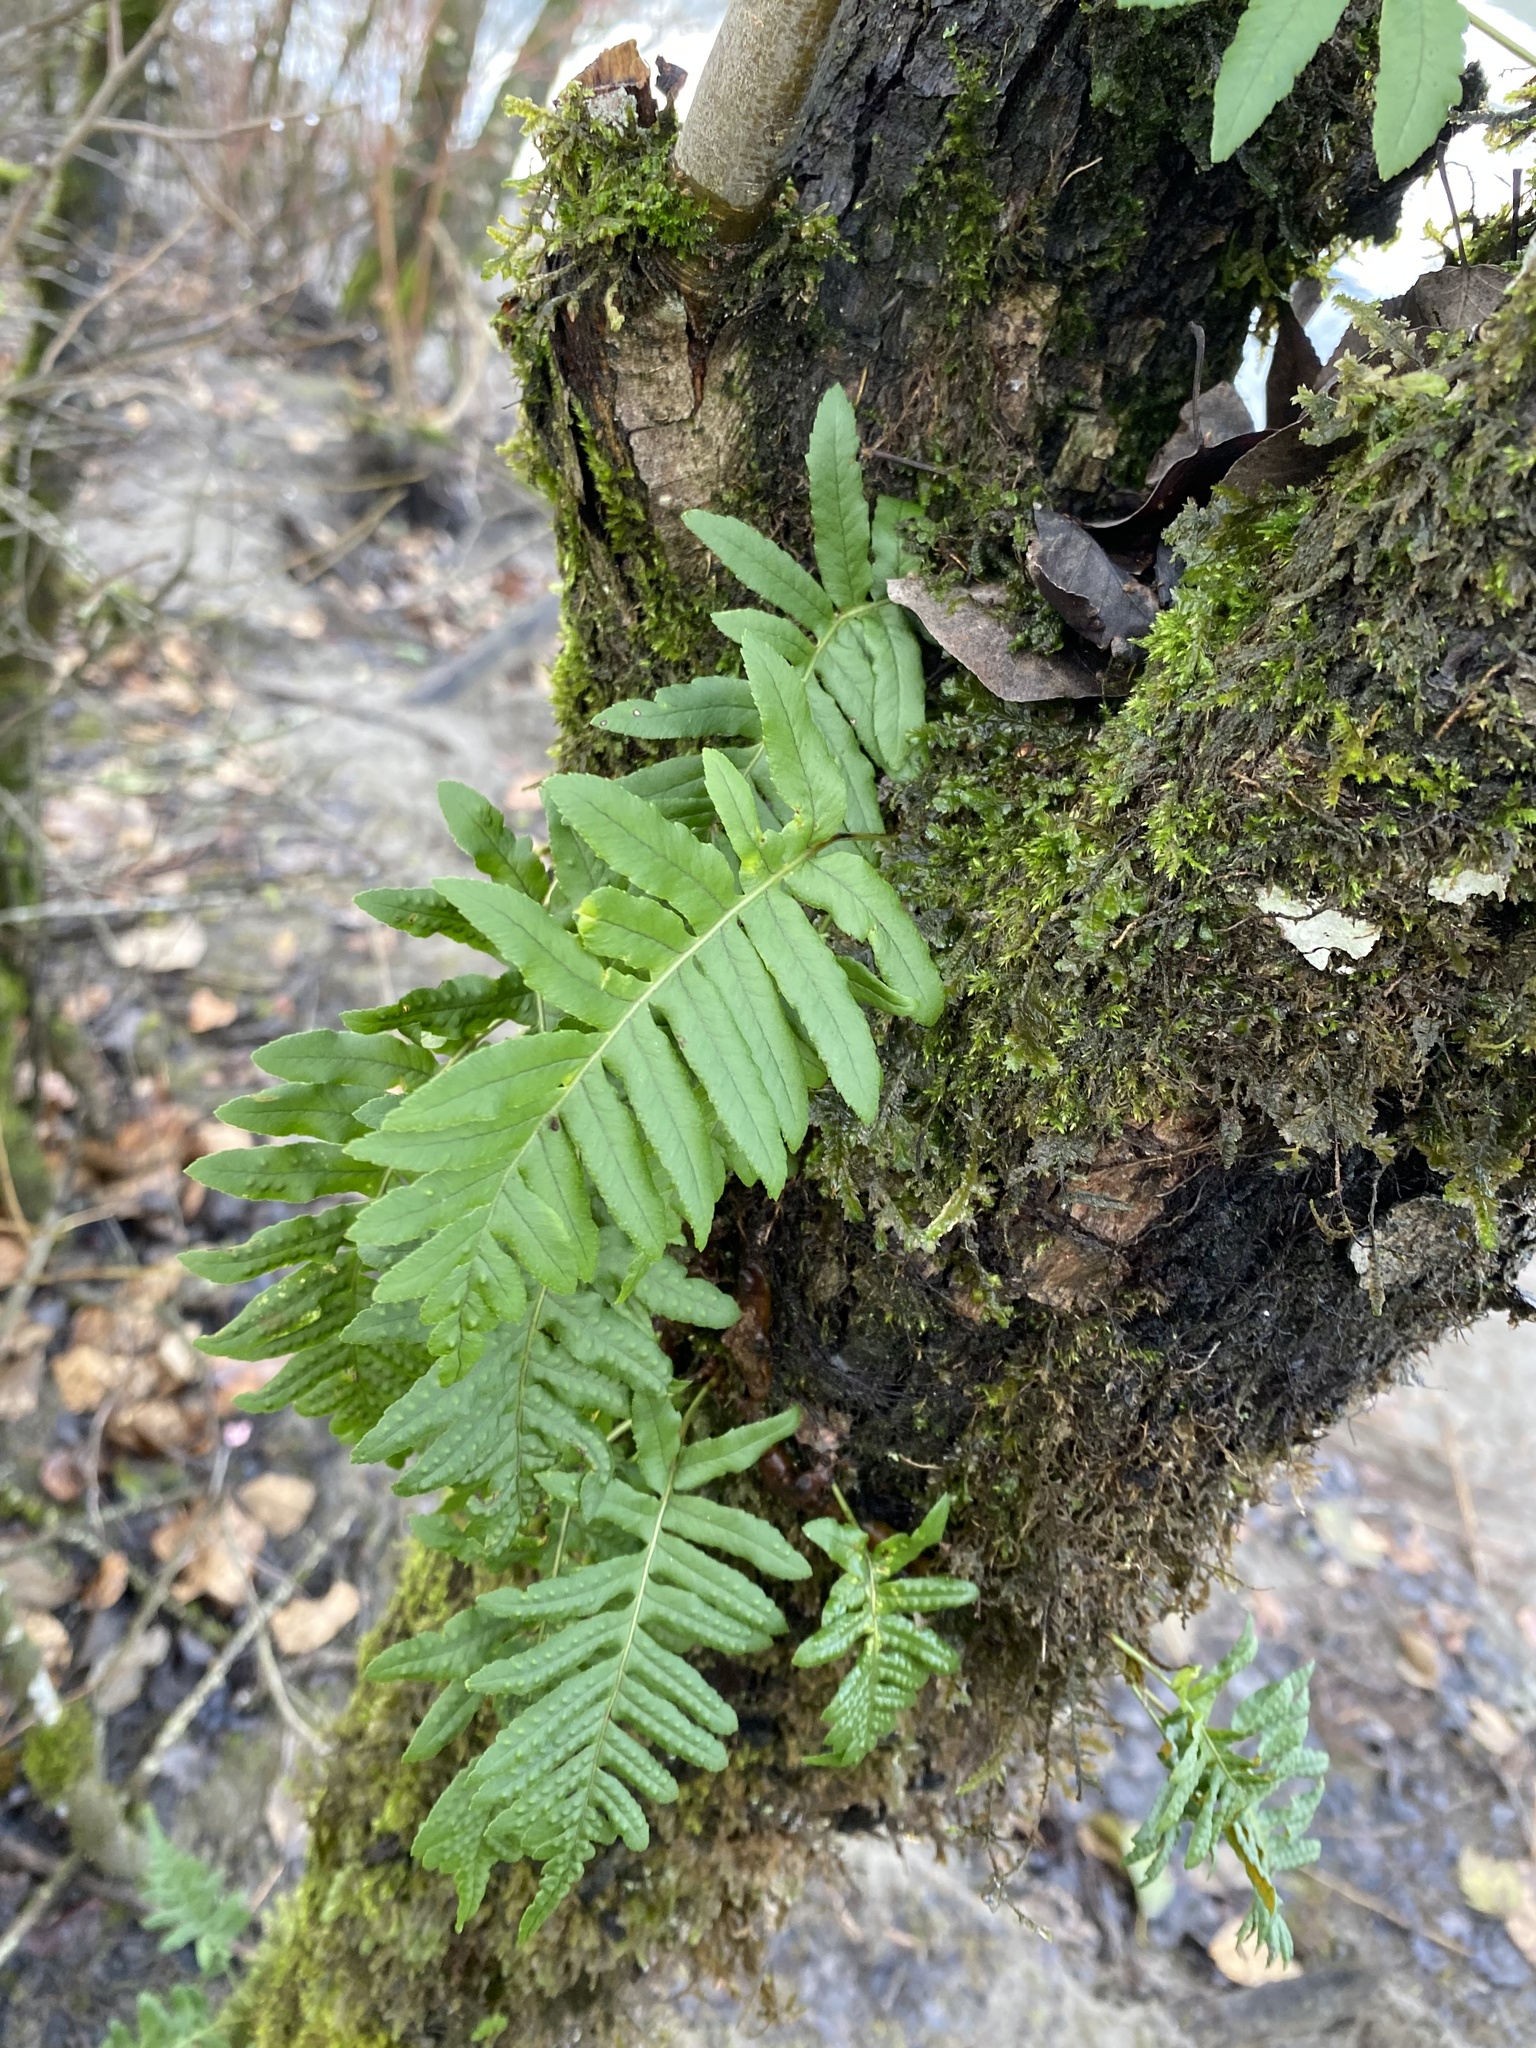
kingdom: Plantae
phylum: Tracheophyta
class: Polypodiopsida
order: Polypodiales
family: Polypodiaceae
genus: Polypodium
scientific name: Polypodium glycyrrhiza
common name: Licorice fern
